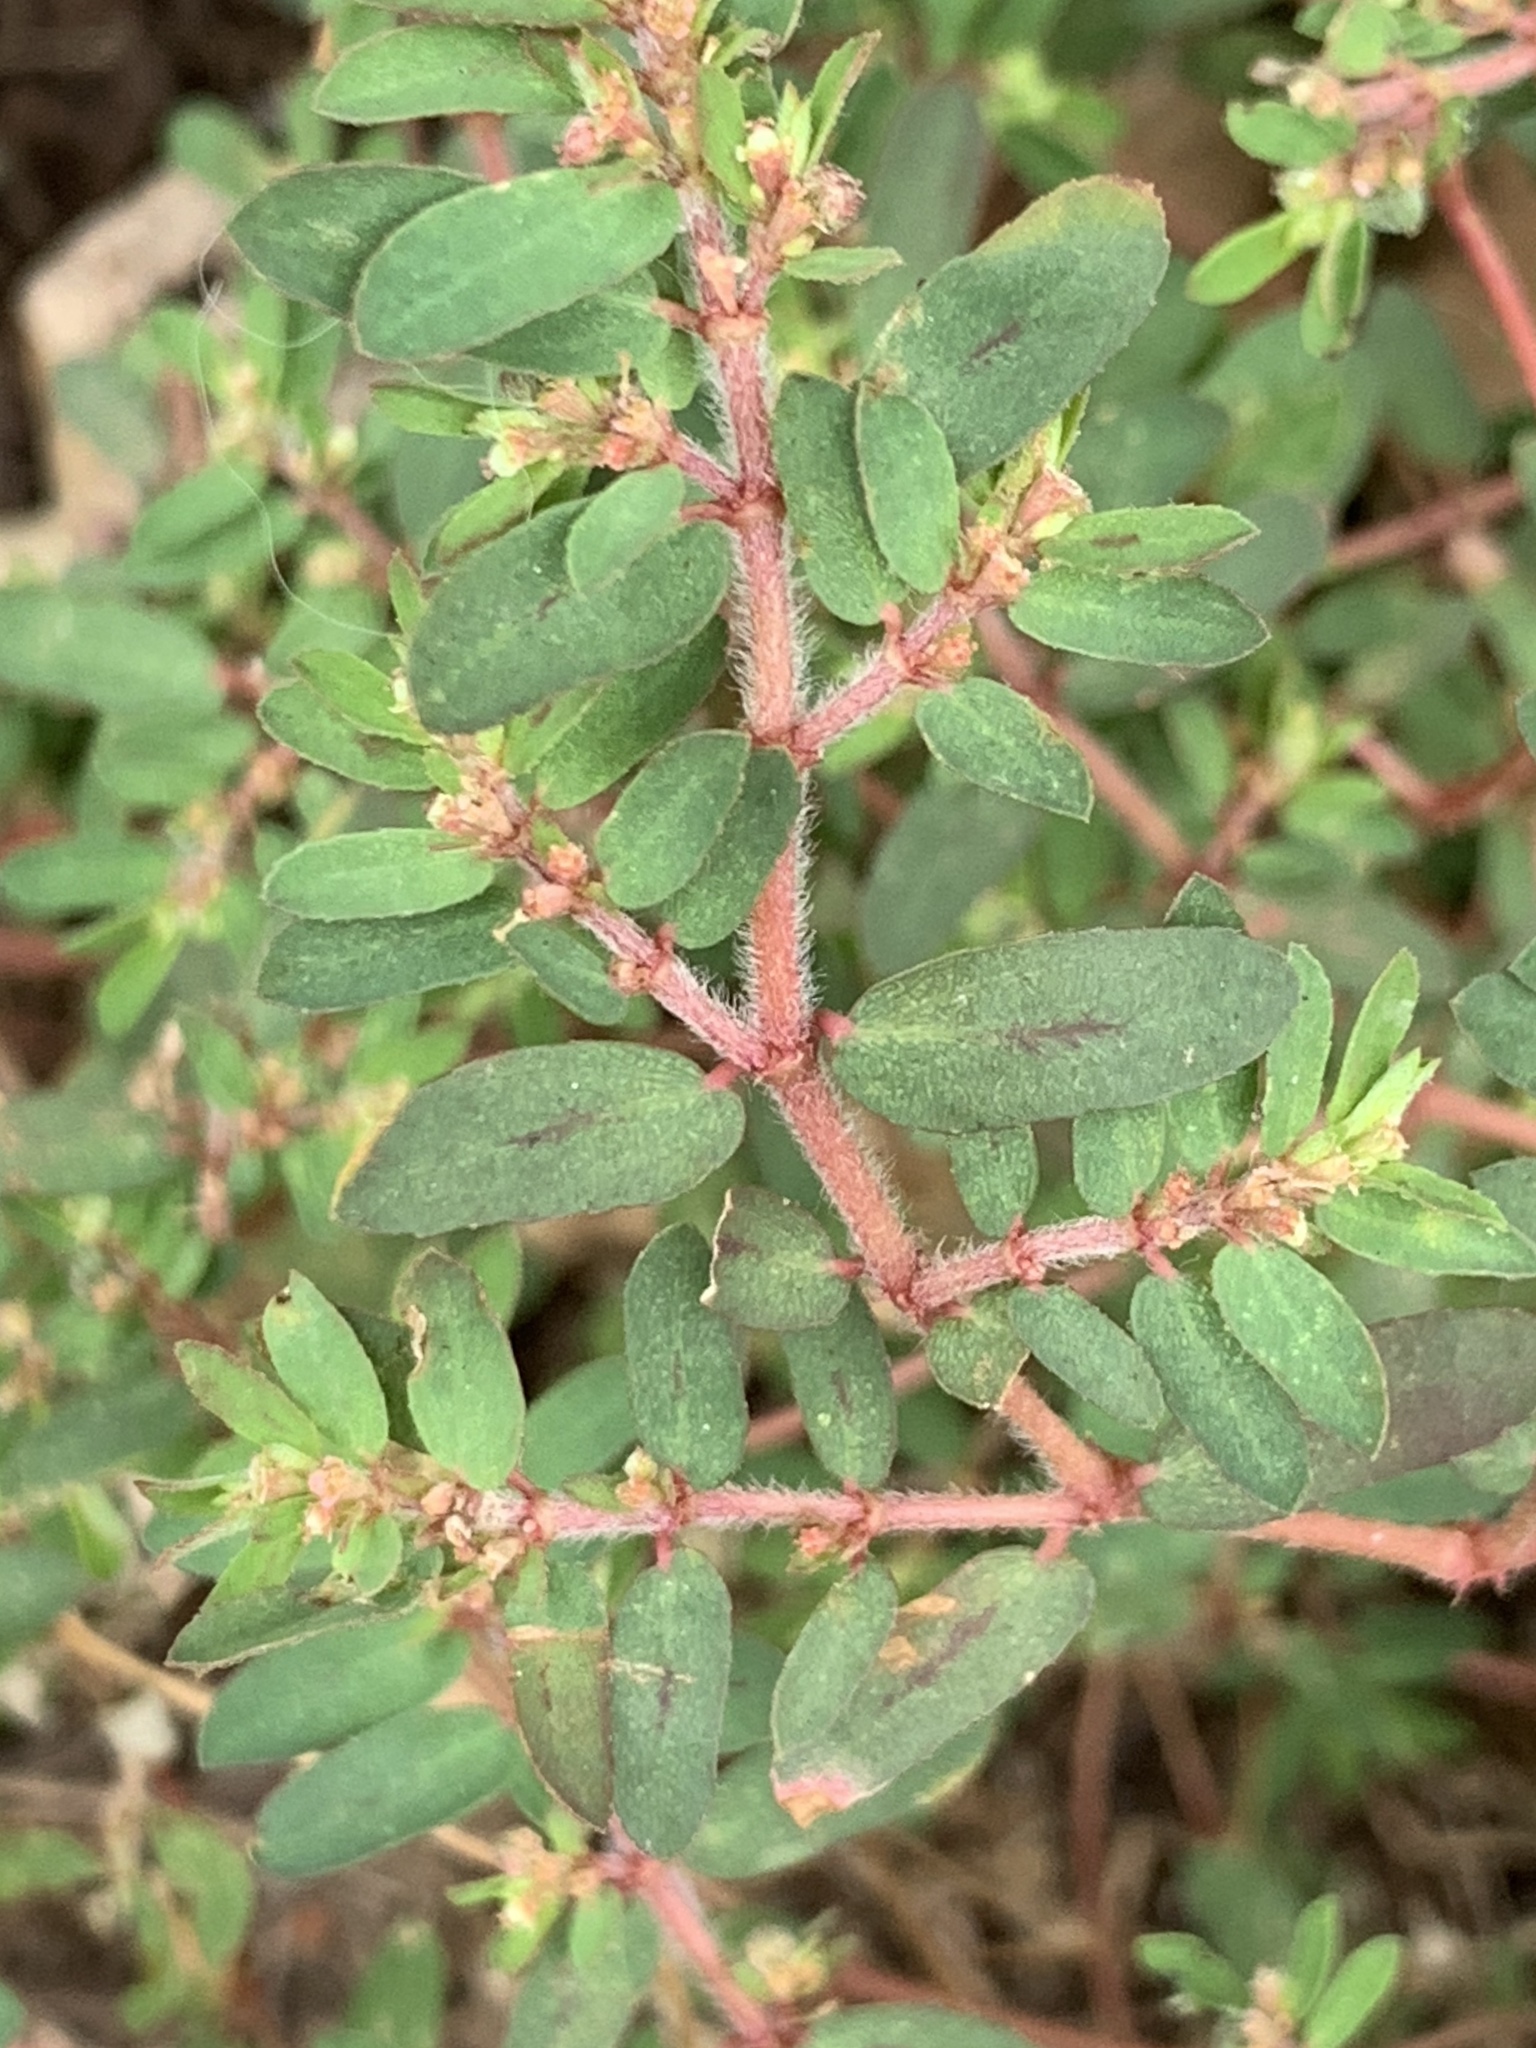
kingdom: Plantae
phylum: Tracheophyta
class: Magnoliopsida
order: Malpighiales
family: Euphorbiaceae
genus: Euphorbia
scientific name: Euphorbia maculata
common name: Spotted spurge
